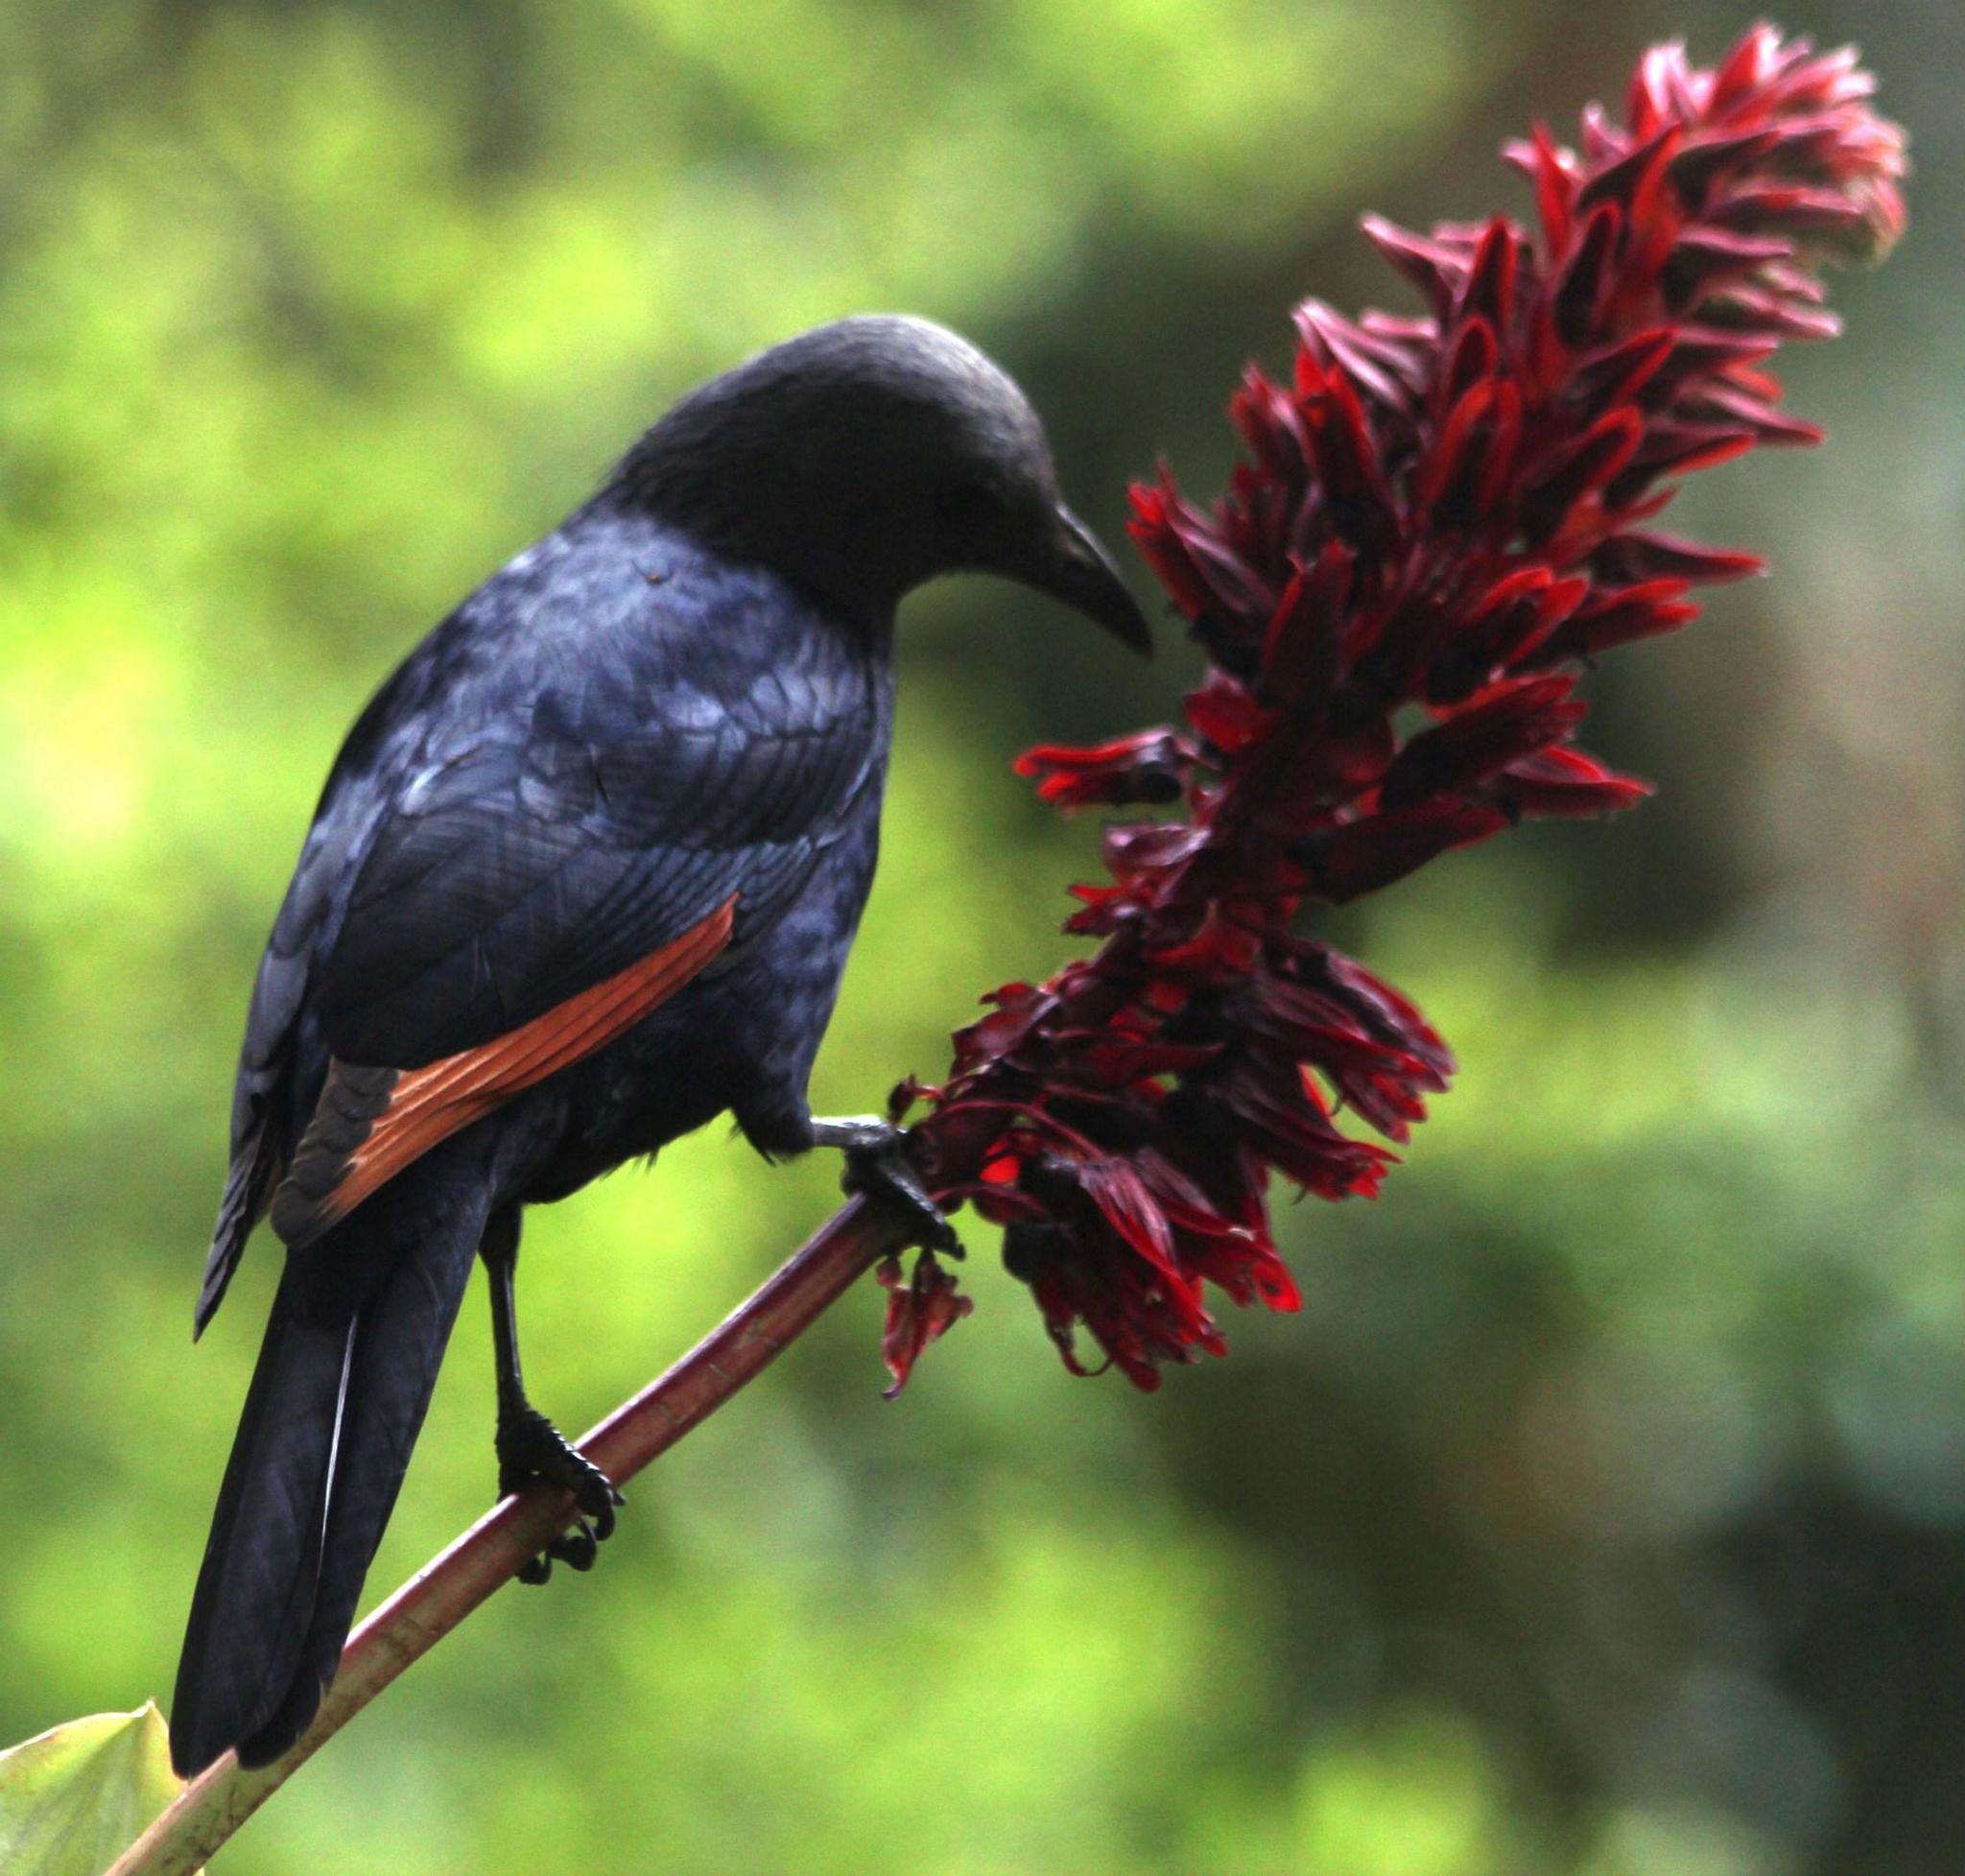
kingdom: Plantae
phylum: Tracheophyta
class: Magnoliopsida
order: Geraniales
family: Melianthaceae
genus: Melianthus
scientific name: Melianthus major
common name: Honey-flower
